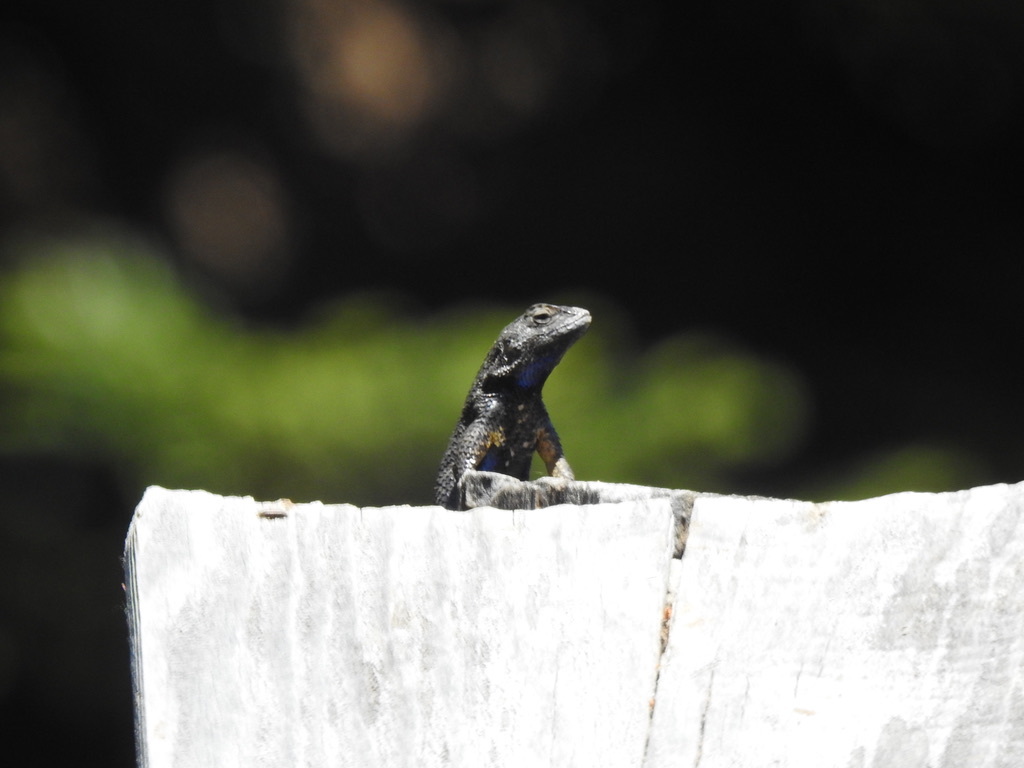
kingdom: Animalia
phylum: Chordata
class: Squamata
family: Phrynosomatidae
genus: Sceloporus
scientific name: Sceloporus occidentalis
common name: Western fence lizard
